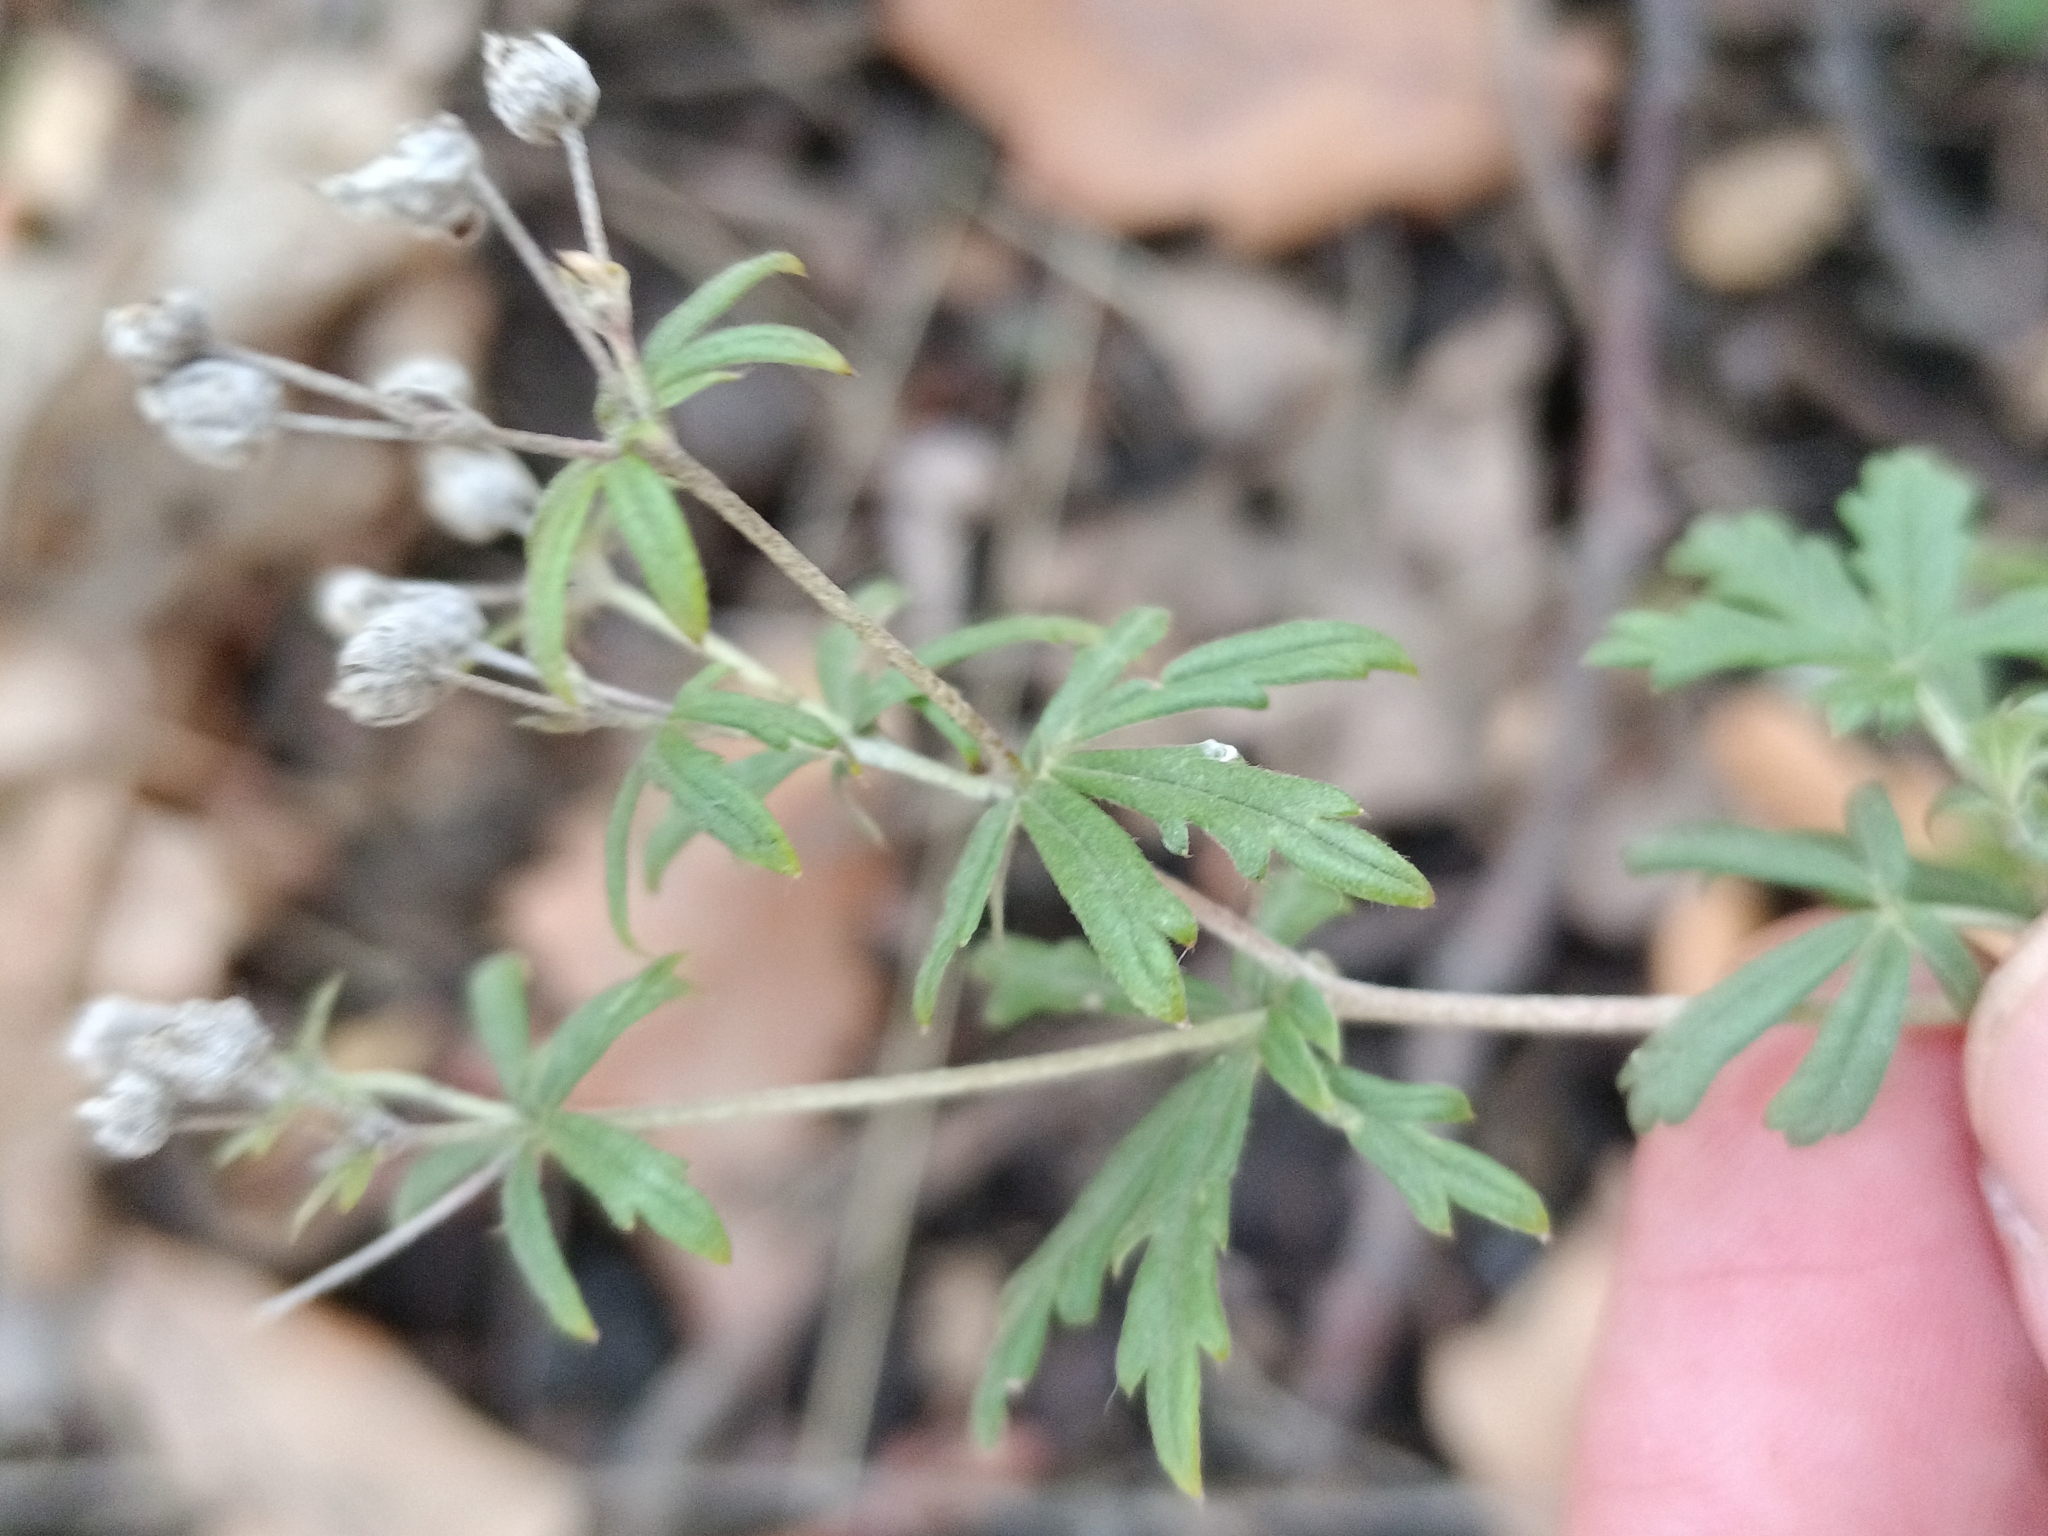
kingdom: Plantae
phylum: Tracheophyta
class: Magnoliopsida
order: Rosales
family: Rosaceae
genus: Potentilla
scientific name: Potentilla argentea
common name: Hoary cinquefoil
